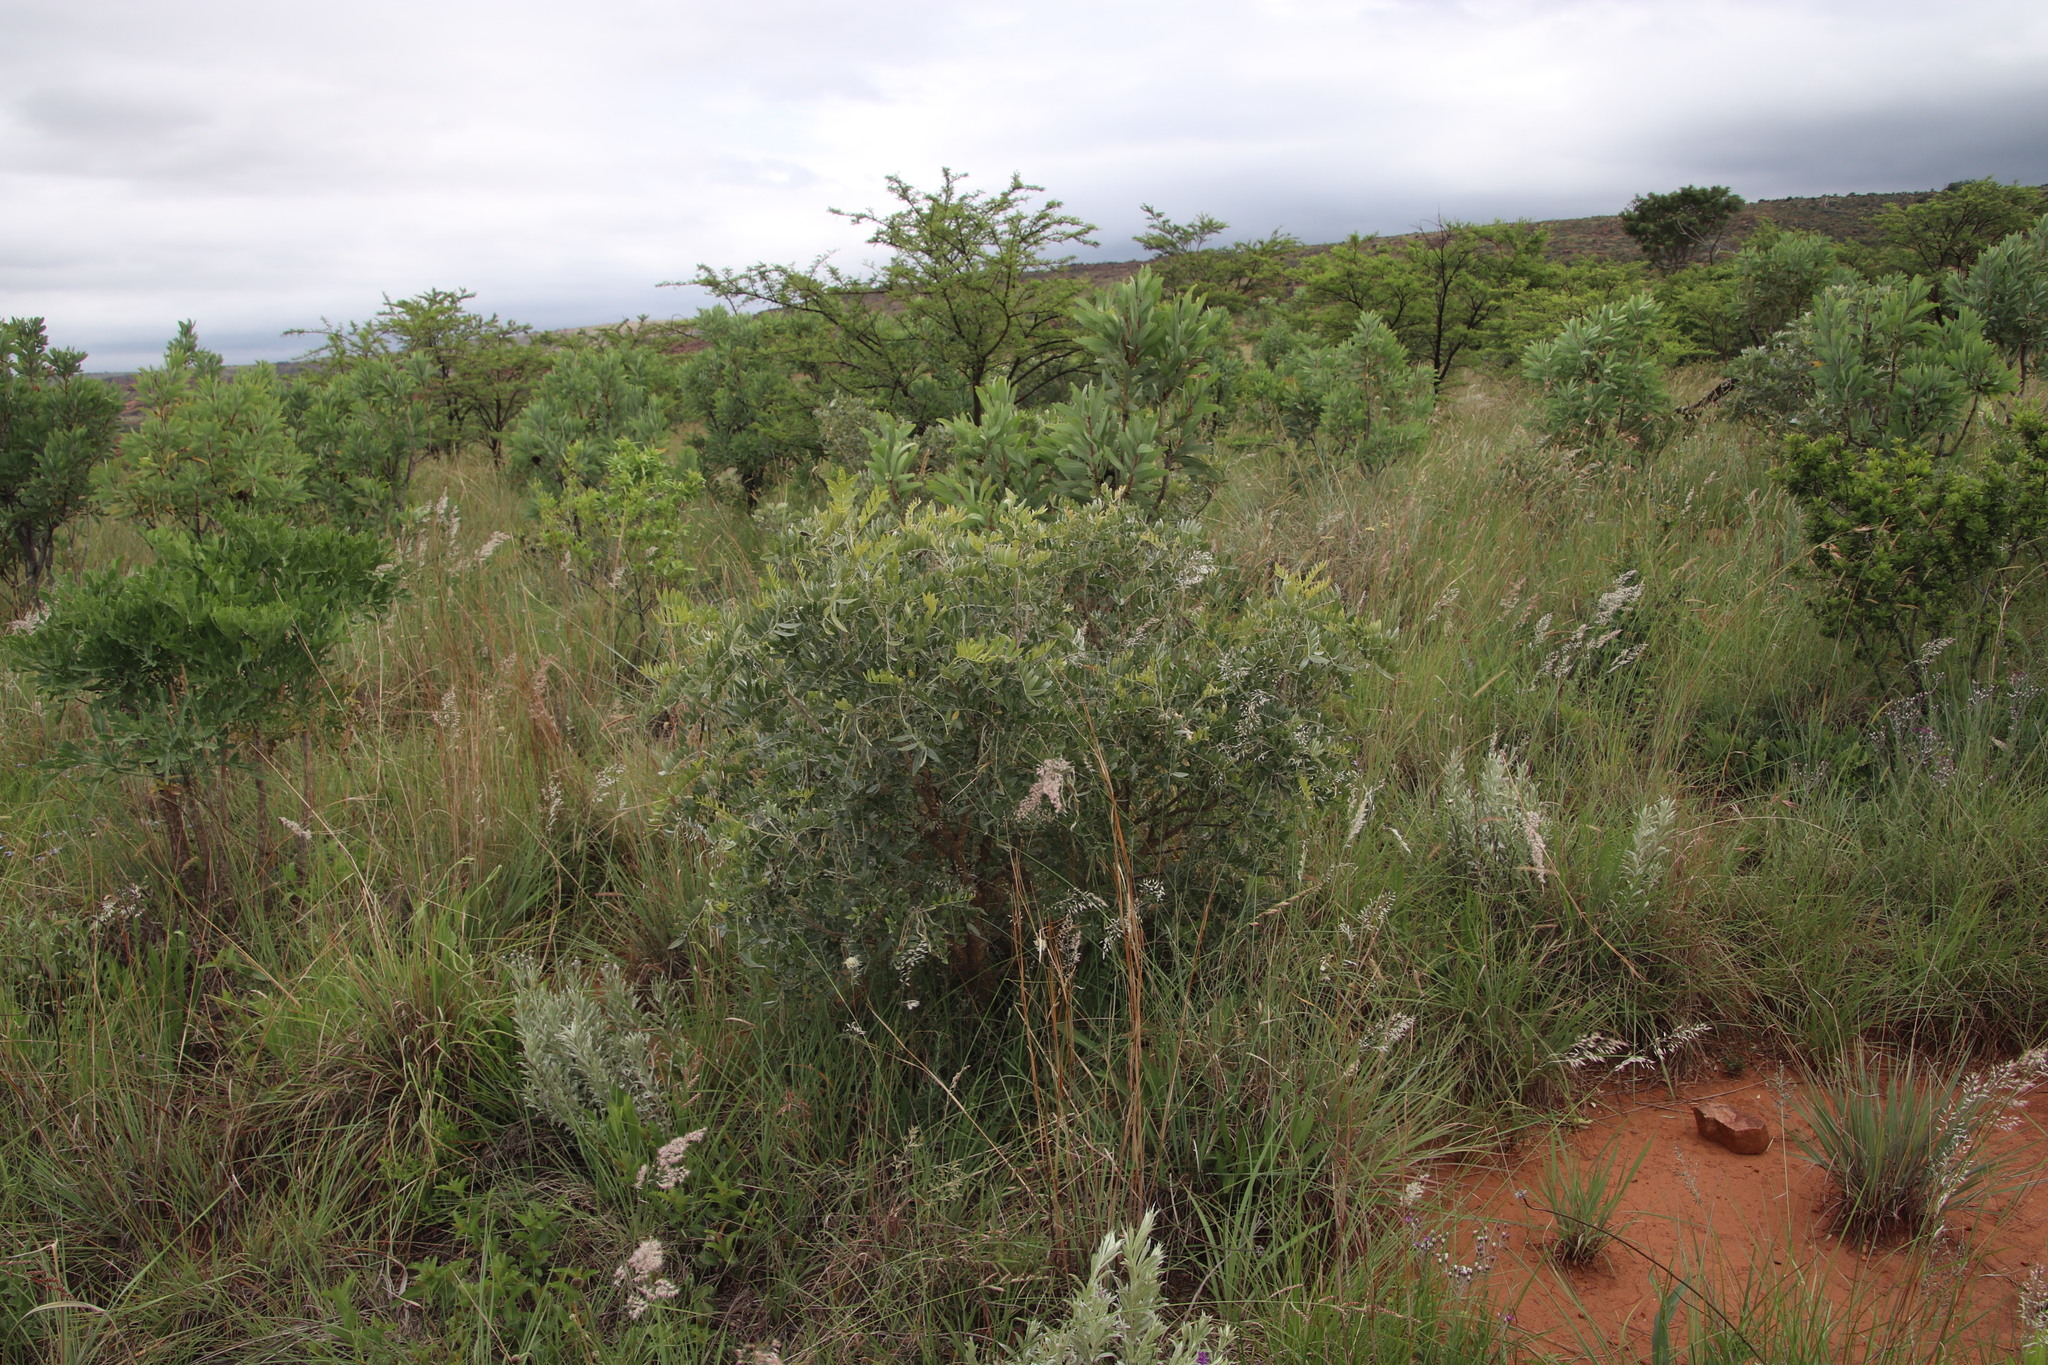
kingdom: Plantae
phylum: Tracheophyta
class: Magnoliopsida
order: Fabales
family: Fabaceae
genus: Mundulea
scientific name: Mundulea sericea
